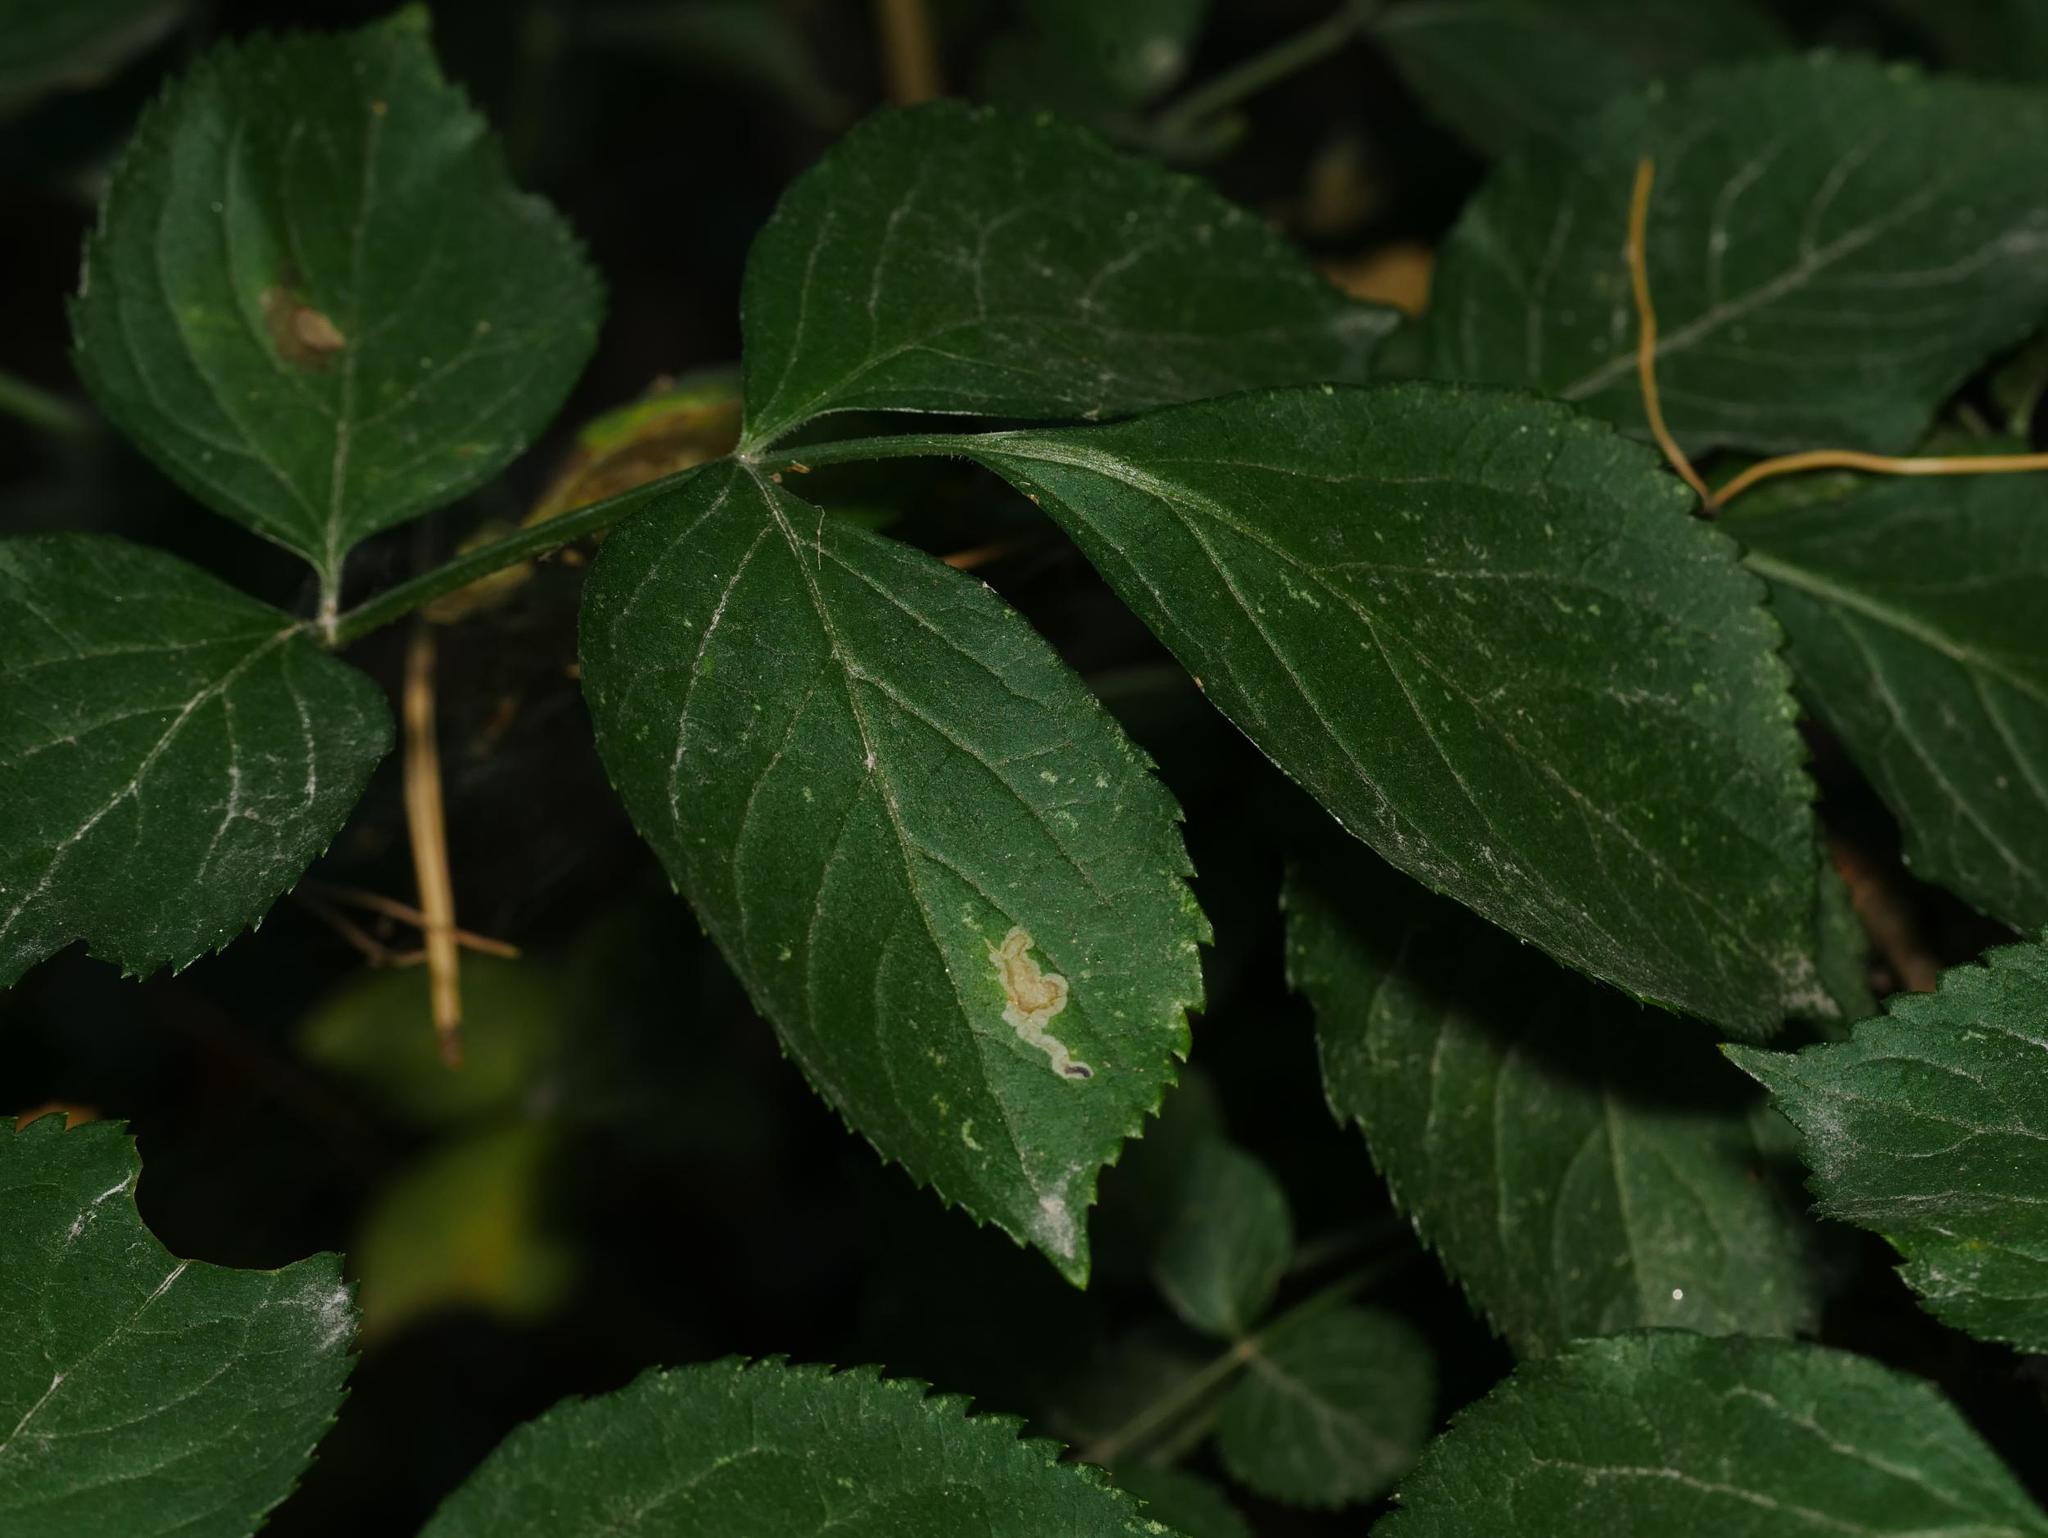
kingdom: Plantae
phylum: Tracheophyta
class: Magnoliopsida
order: Dipsacales
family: Viburnaceae
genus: Sambucus
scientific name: Sambucus nigra
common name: Elder
